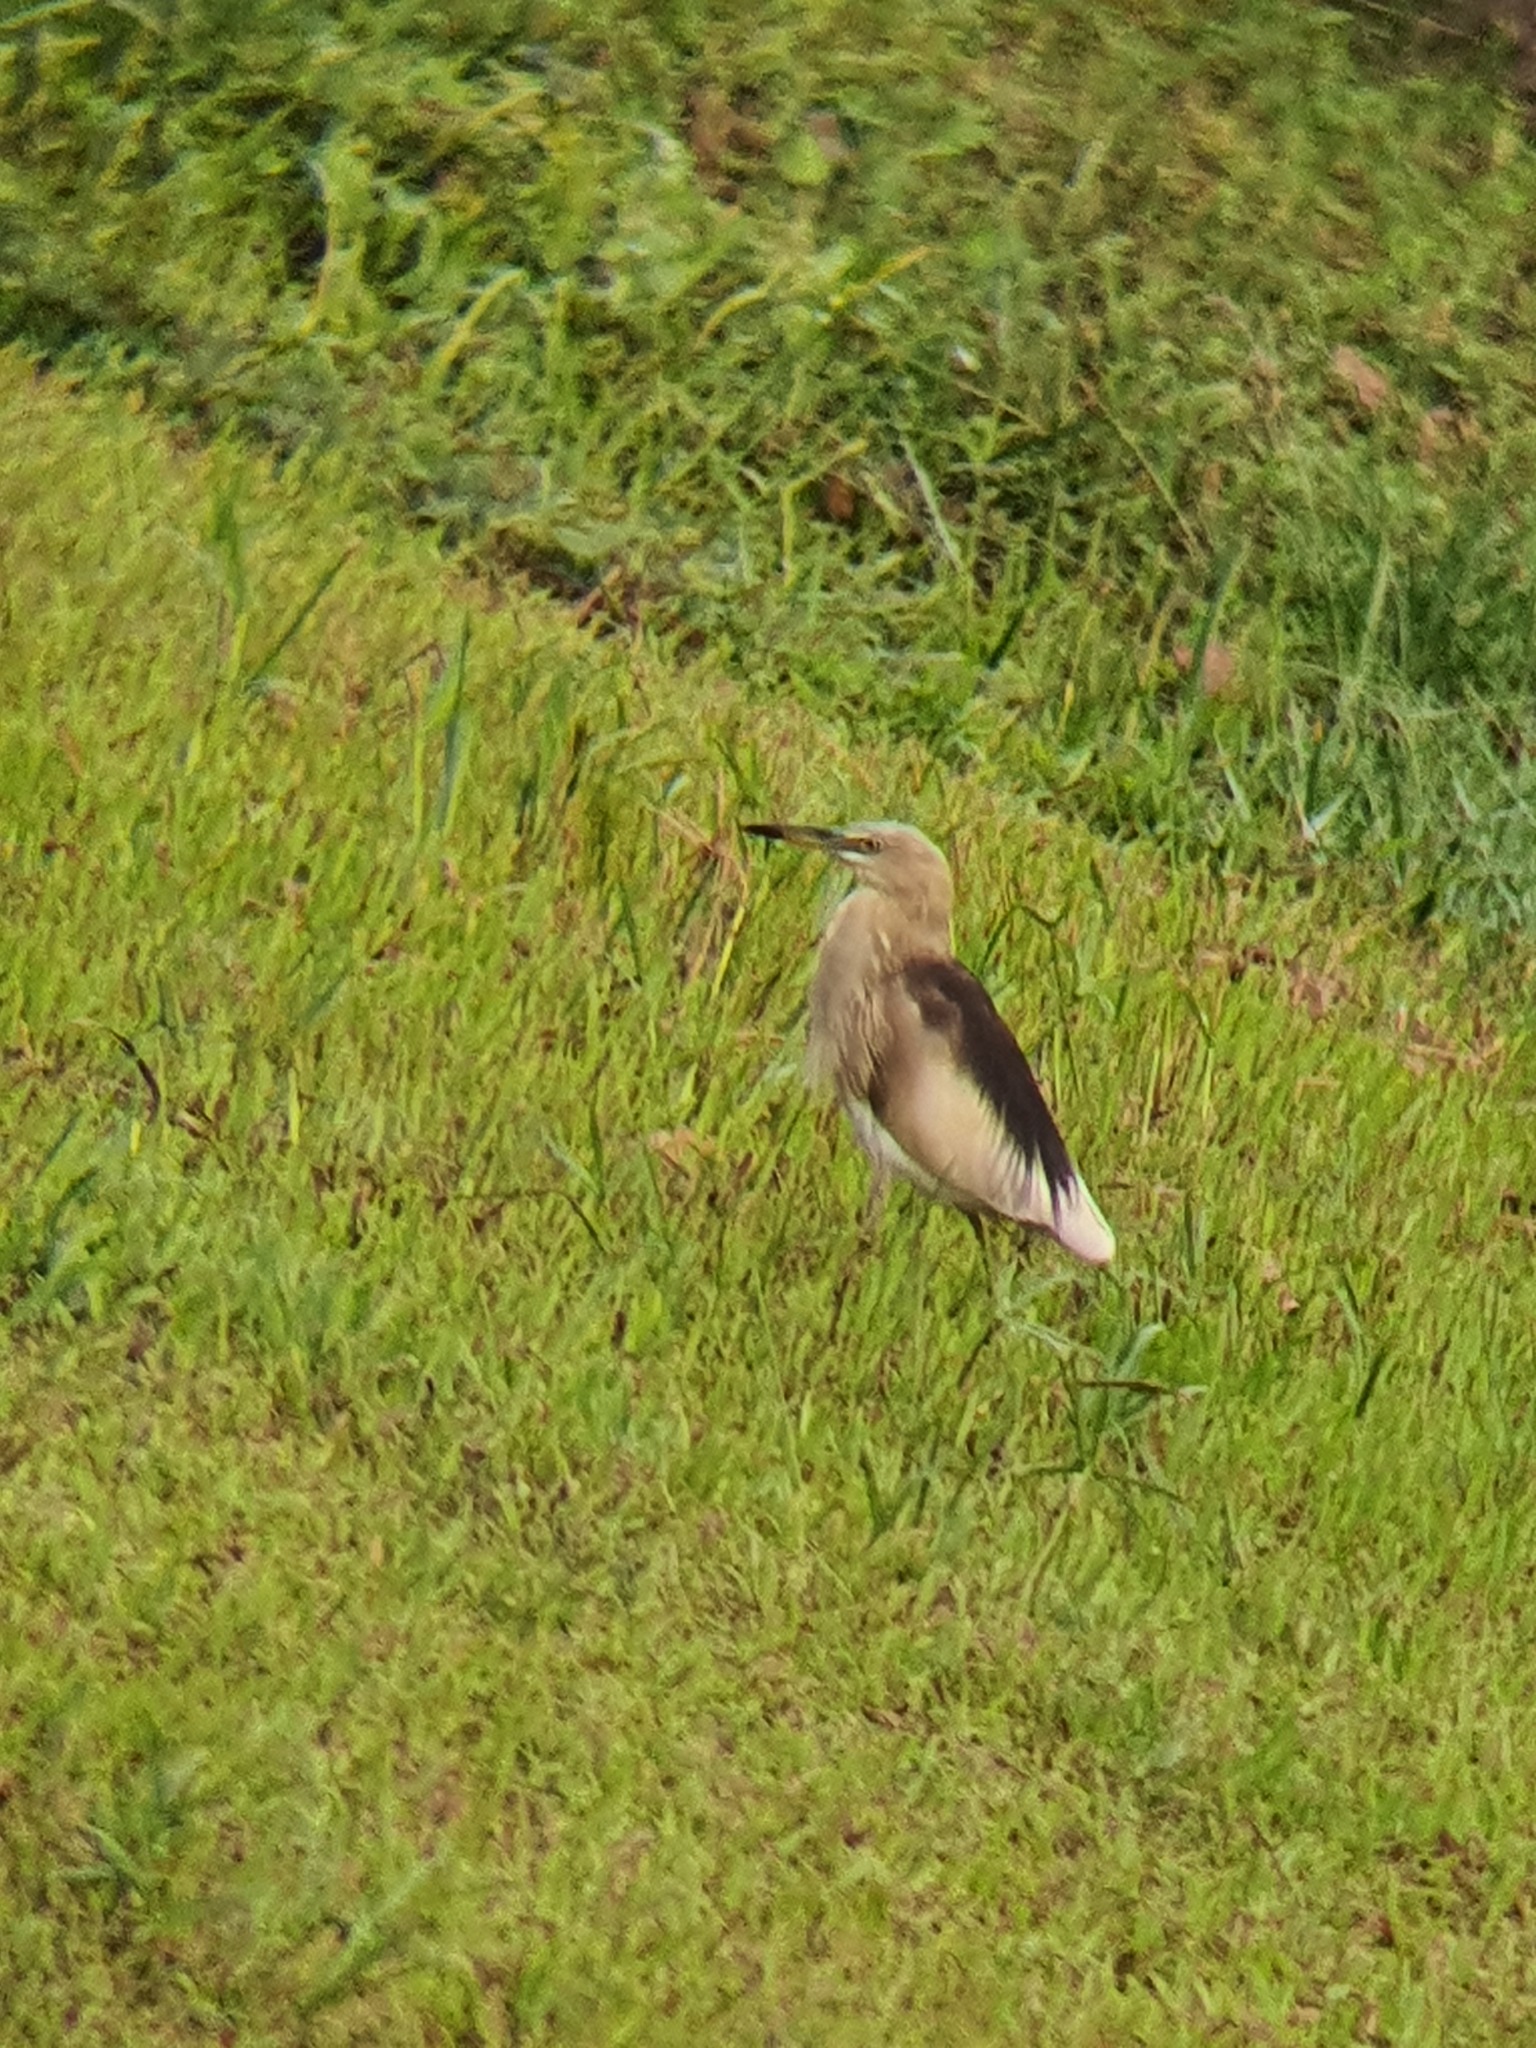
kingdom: Animalia
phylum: Chordata
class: Aves
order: Pelecaniformes
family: Ardeidae
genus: Ardeola
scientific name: Ardeola grayii
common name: Indian pond heron
